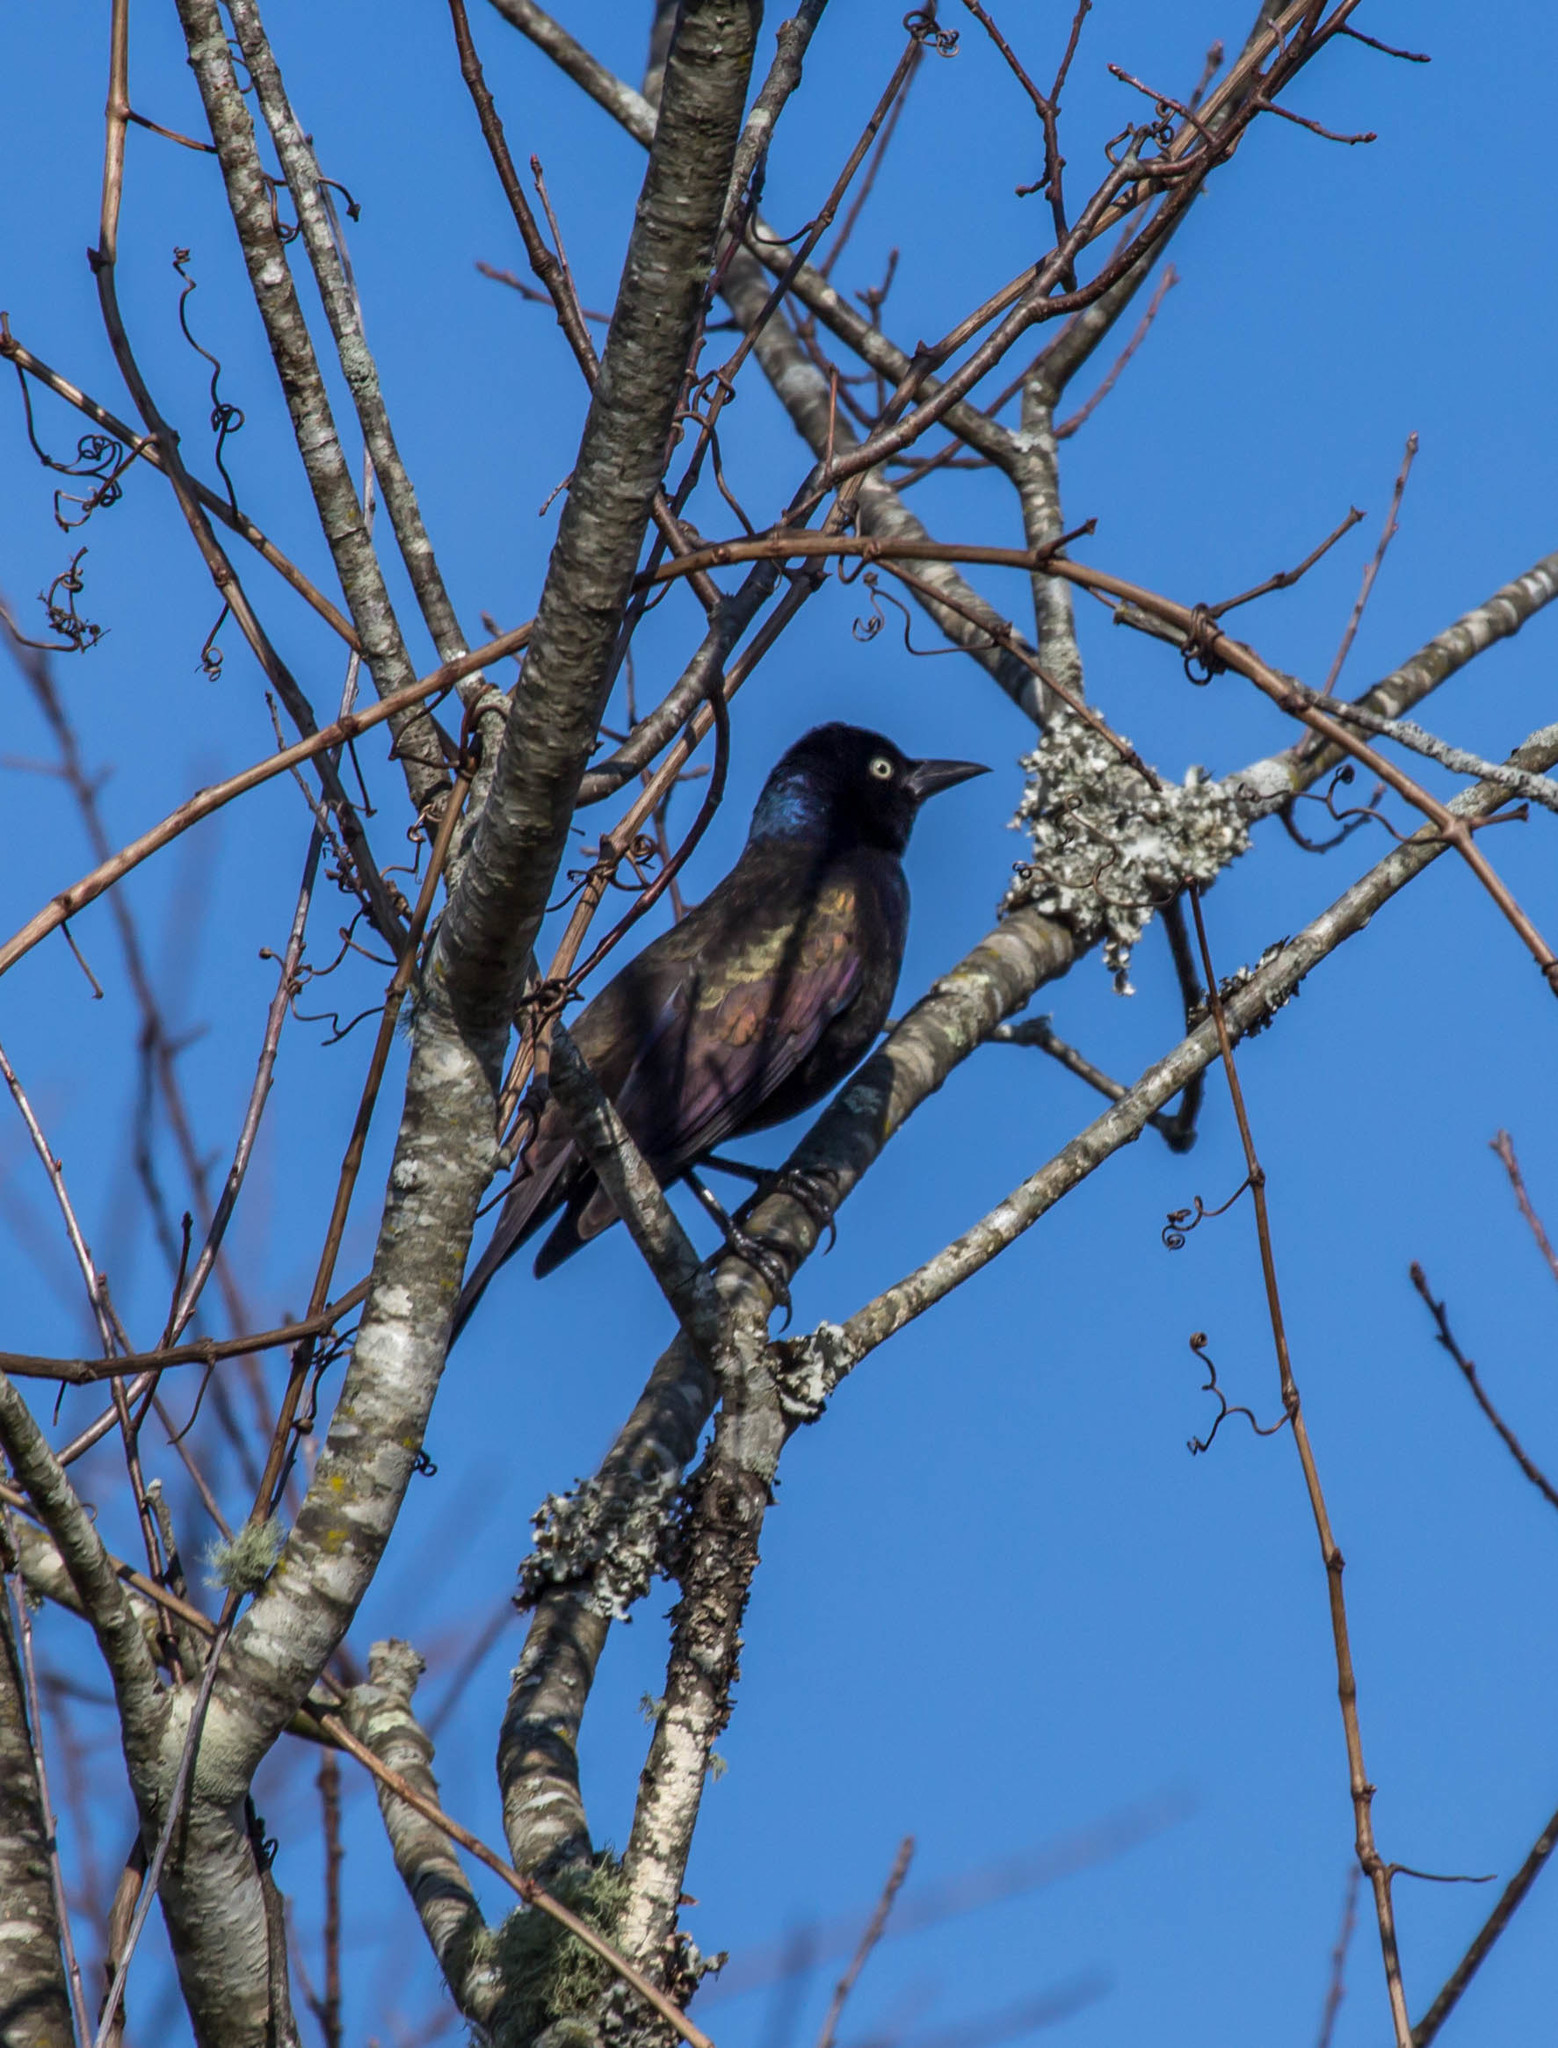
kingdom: Animalia
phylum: Chordata
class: Aves
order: Passeriformes
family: Icteridae
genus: Quiscalus
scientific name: Quiscalus quiscula
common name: Common grackle
